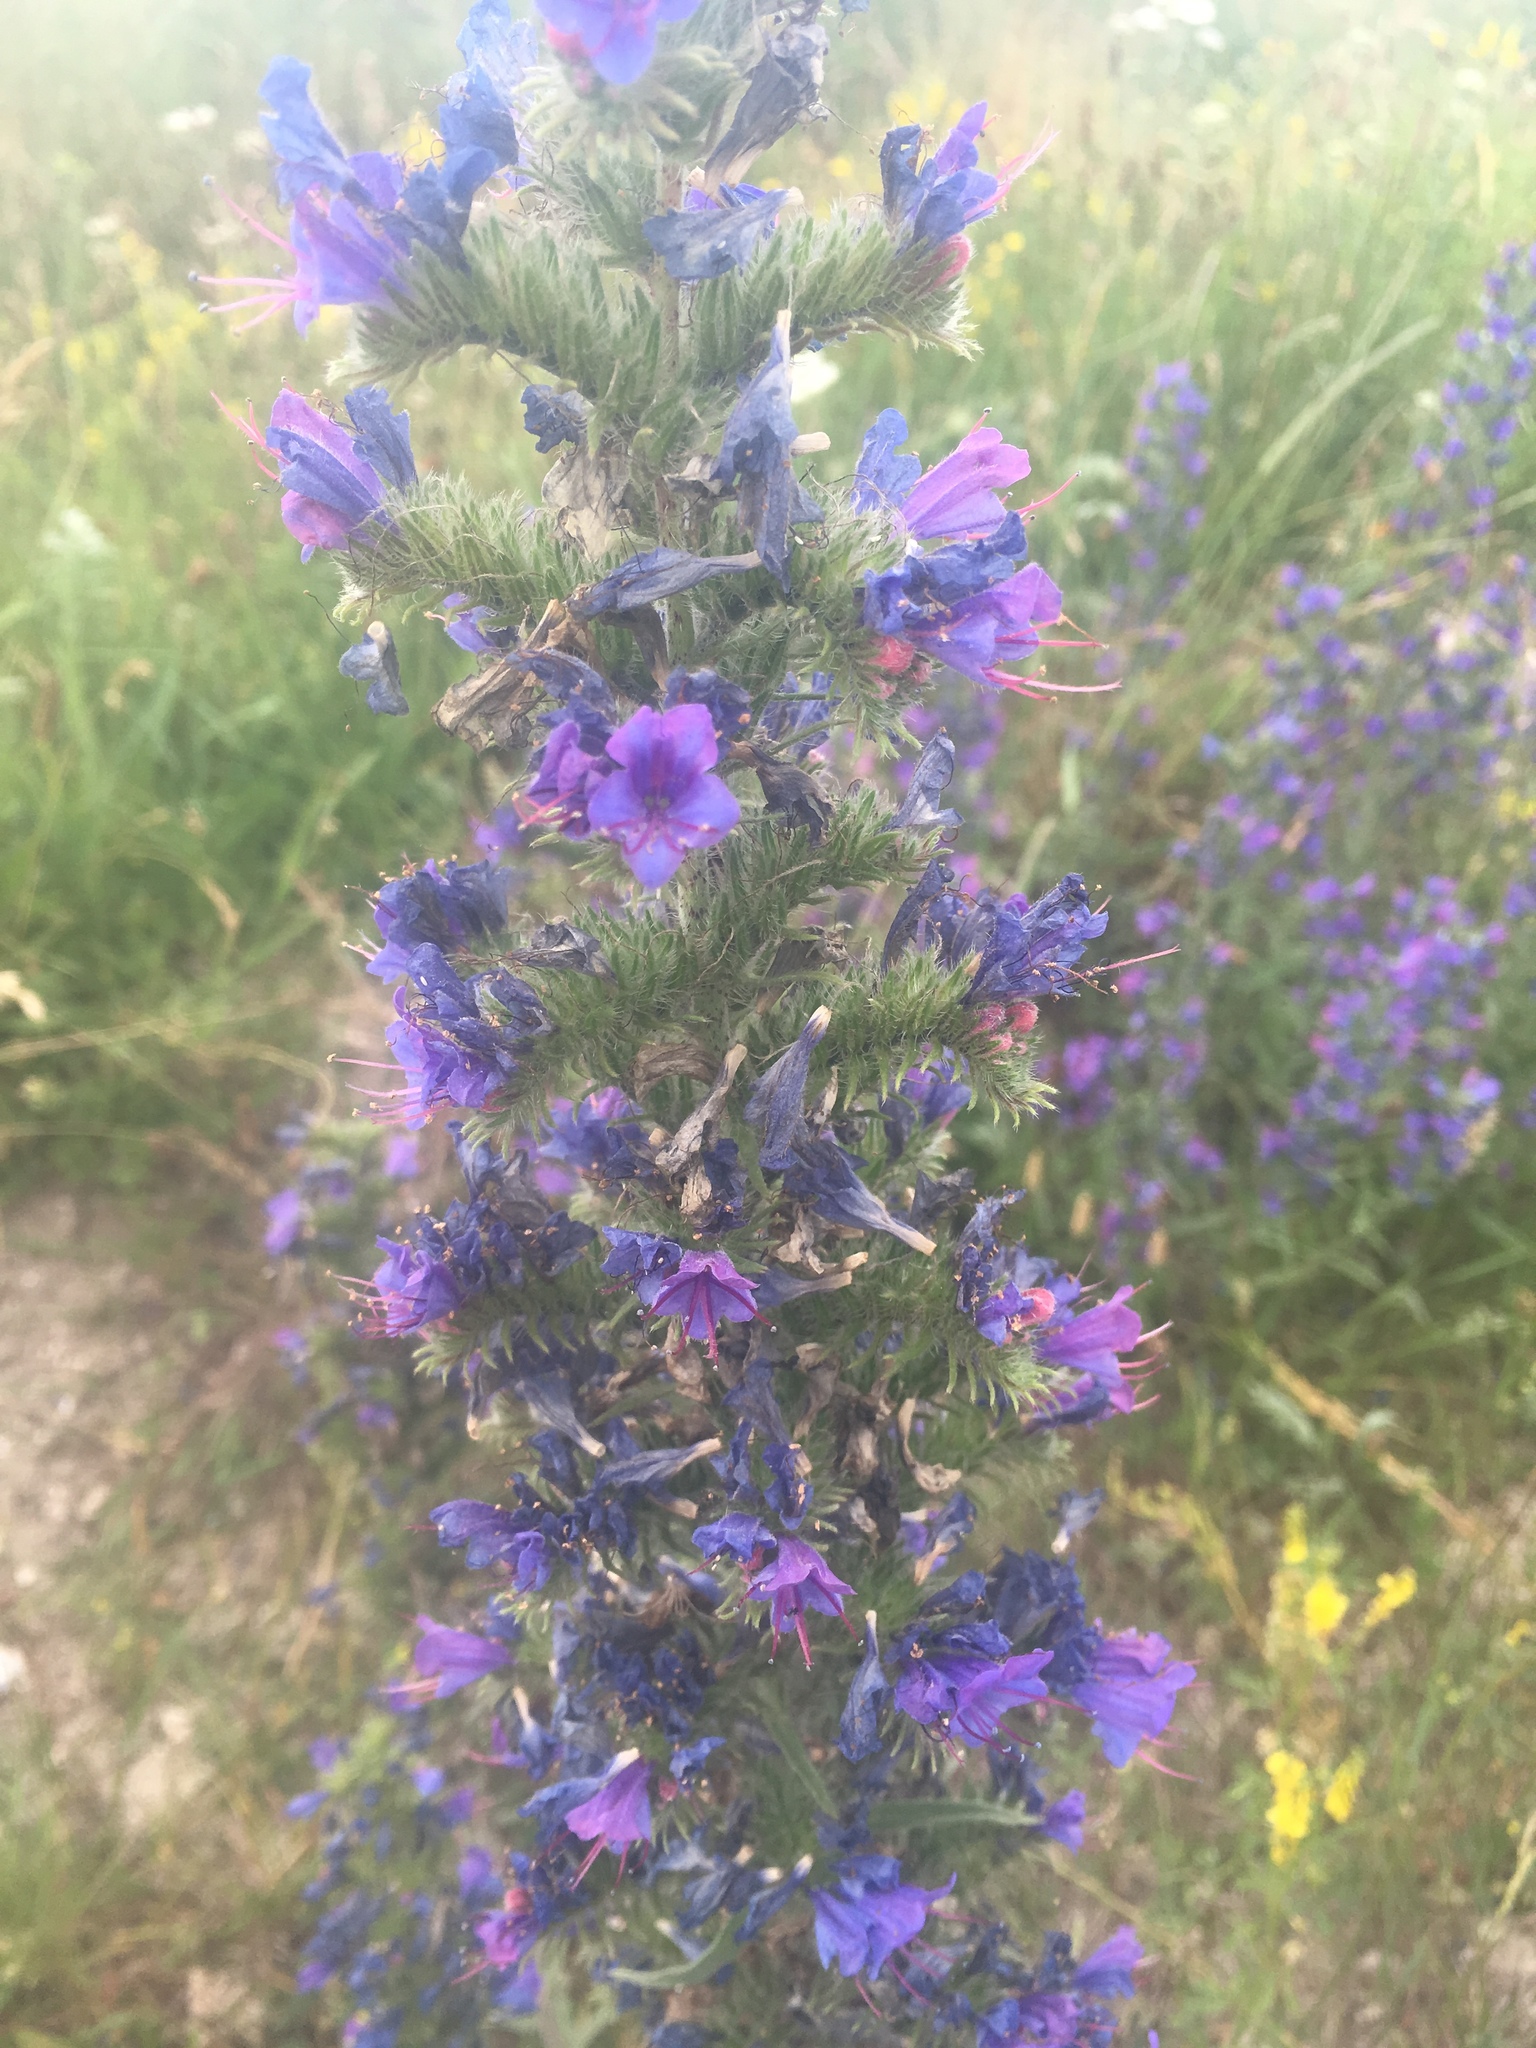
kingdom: Plantae
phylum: Tracheophyta
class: Magnoliopsida
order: Boraginales
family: Boraginaceae
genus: Echium
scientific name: Echium vulgare
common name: Common viper's bugloss
